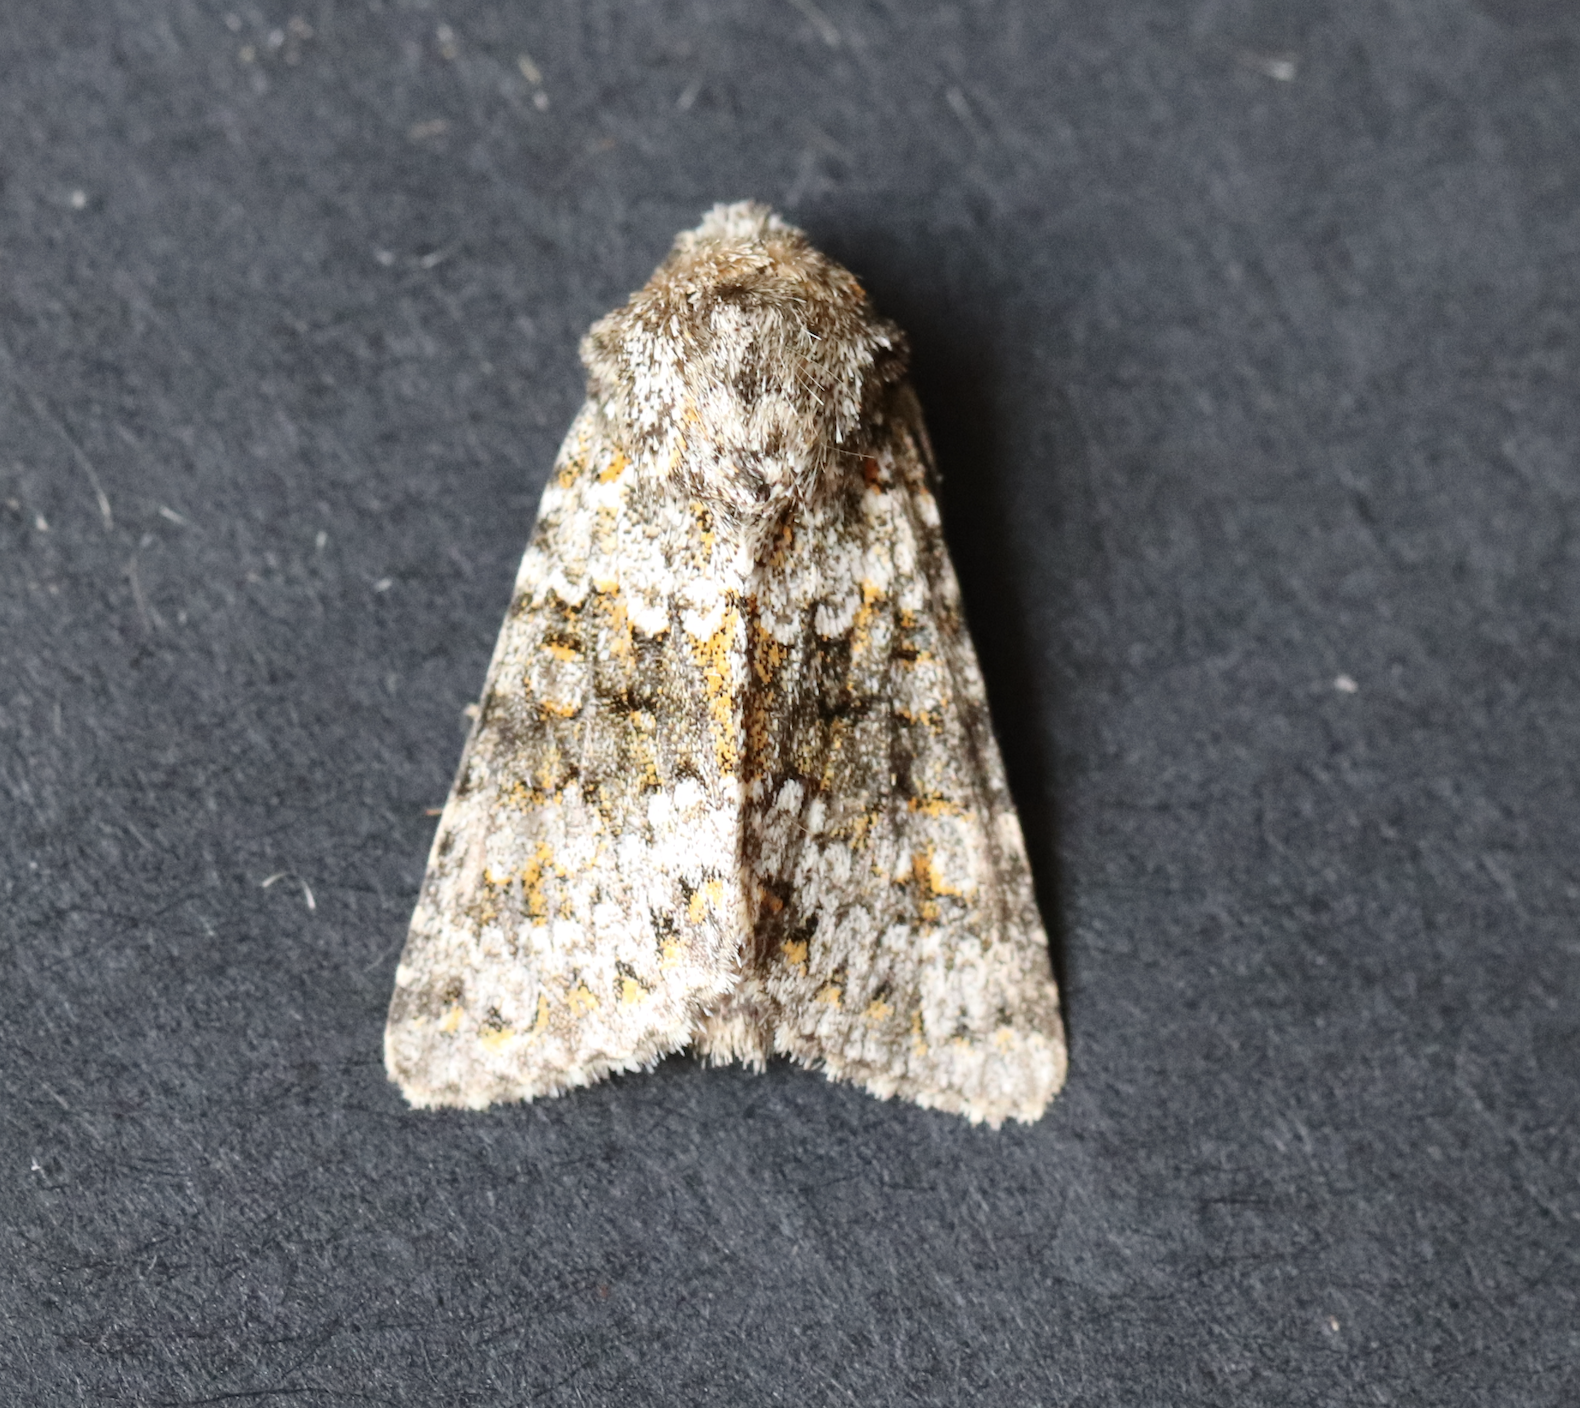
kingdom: Animalia
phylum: Arthropoda
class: Insecta
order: Lepidoptera
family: Noctuidae
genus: Hecatera
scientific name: Hecatera dysodea
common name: Small ranunculus
